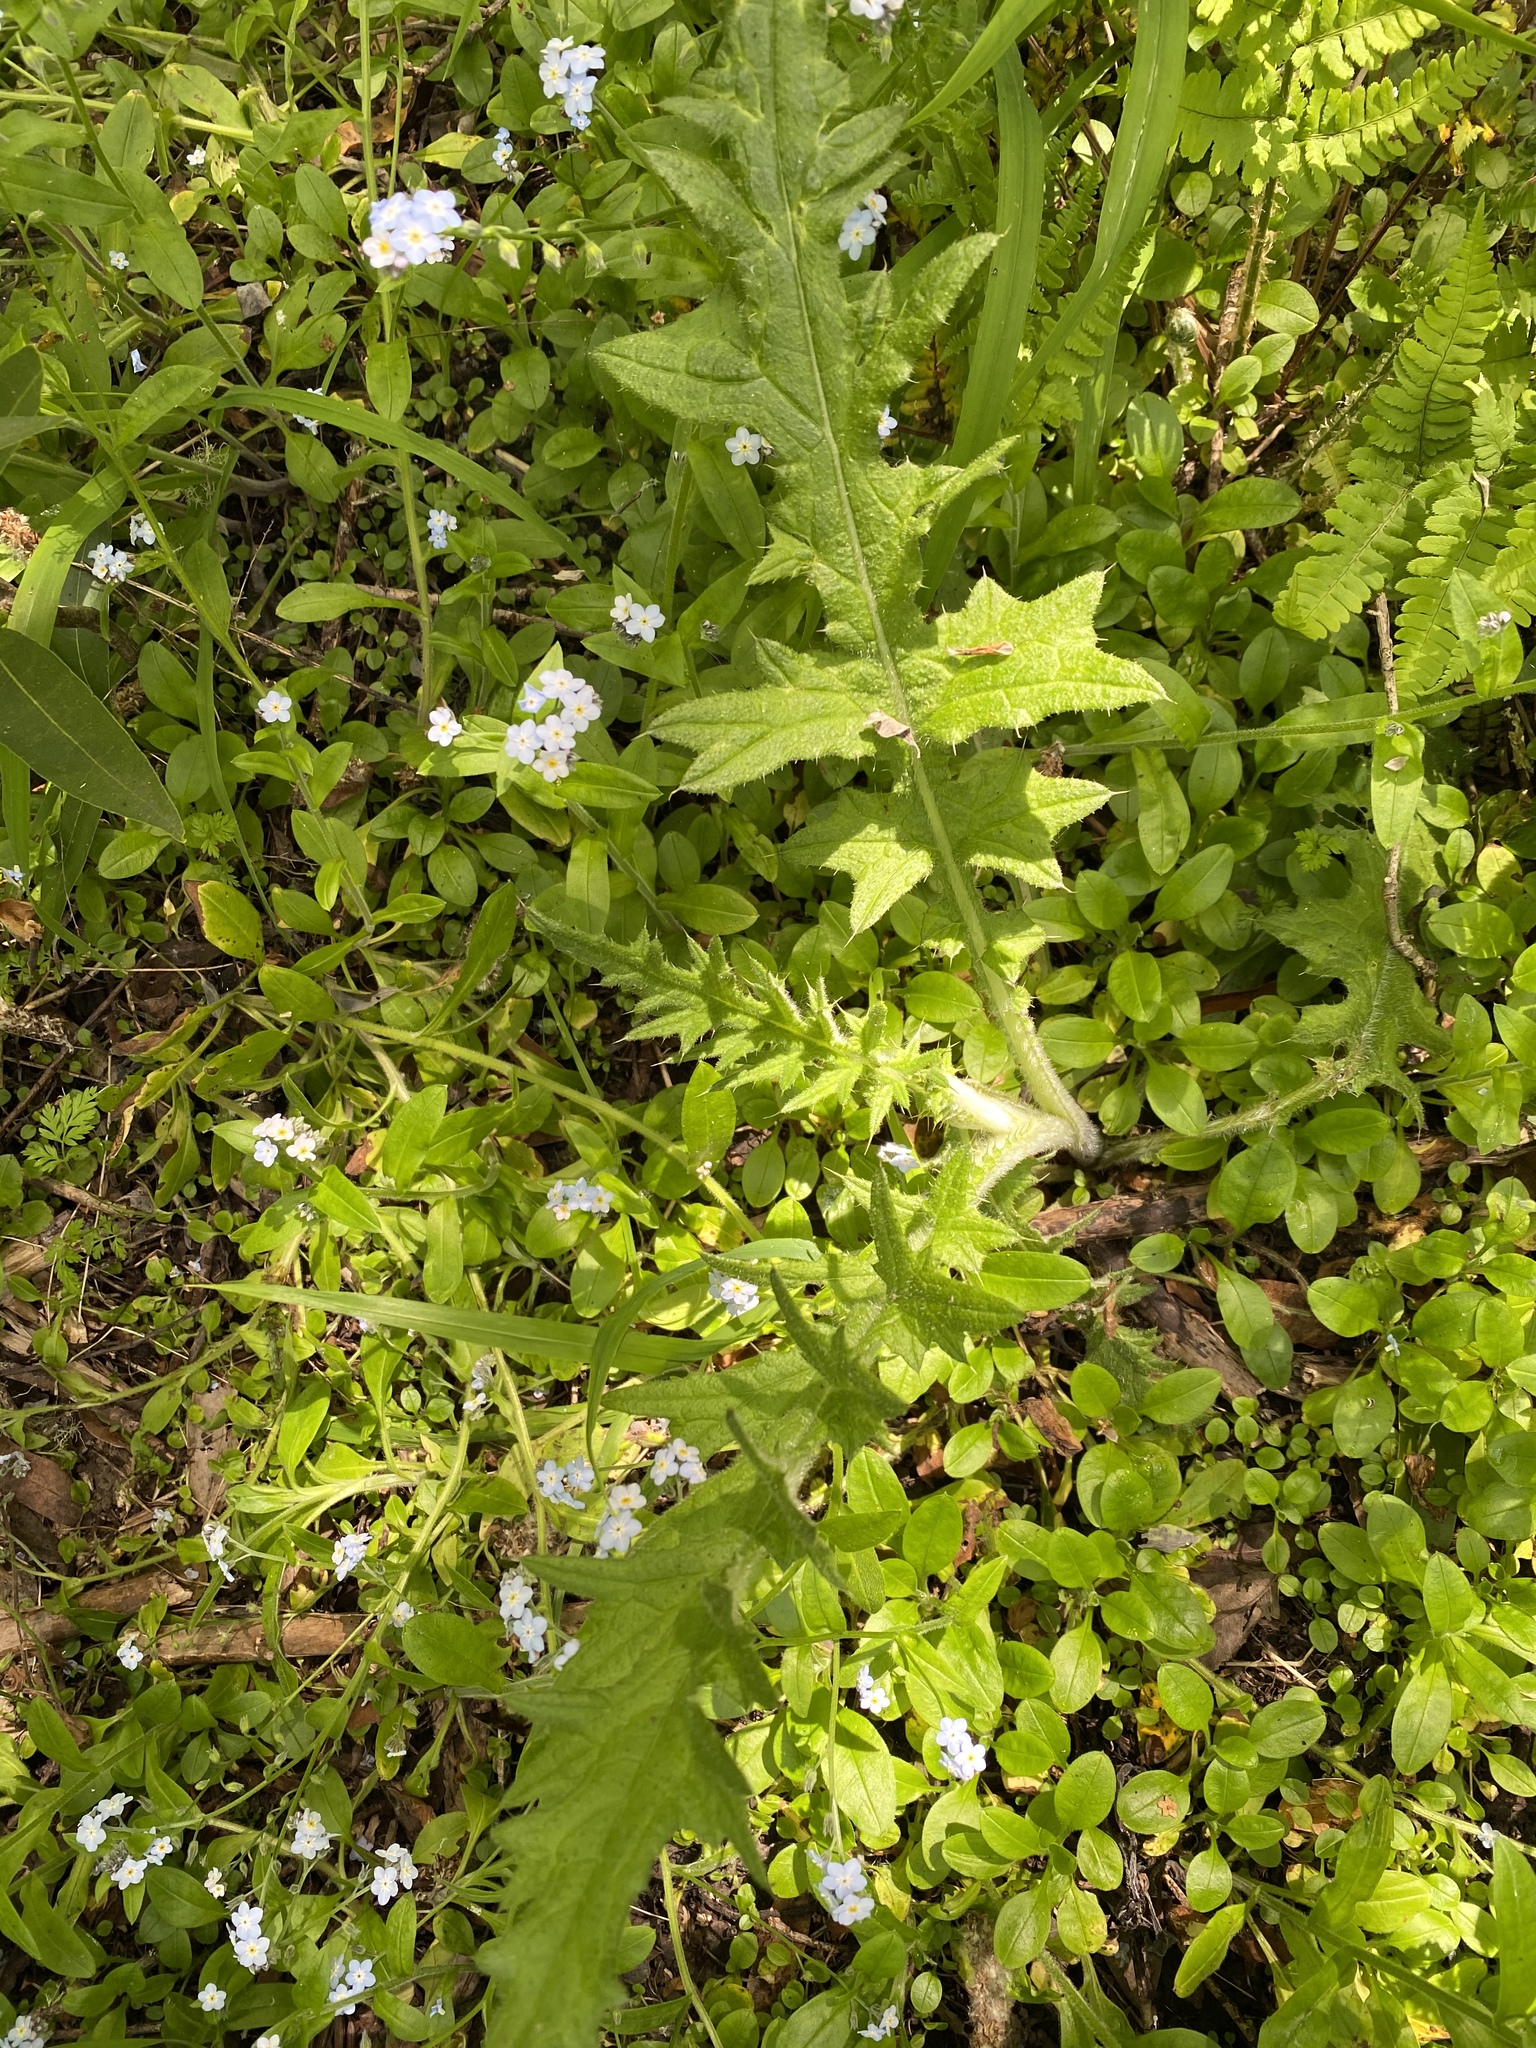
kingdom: Plantae
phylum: Tracheophyta
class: Magnoliopsida
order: Asterales
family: Asteraceae
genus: Cirsium
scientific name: Cirsium vulgare
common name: Bull thistle
